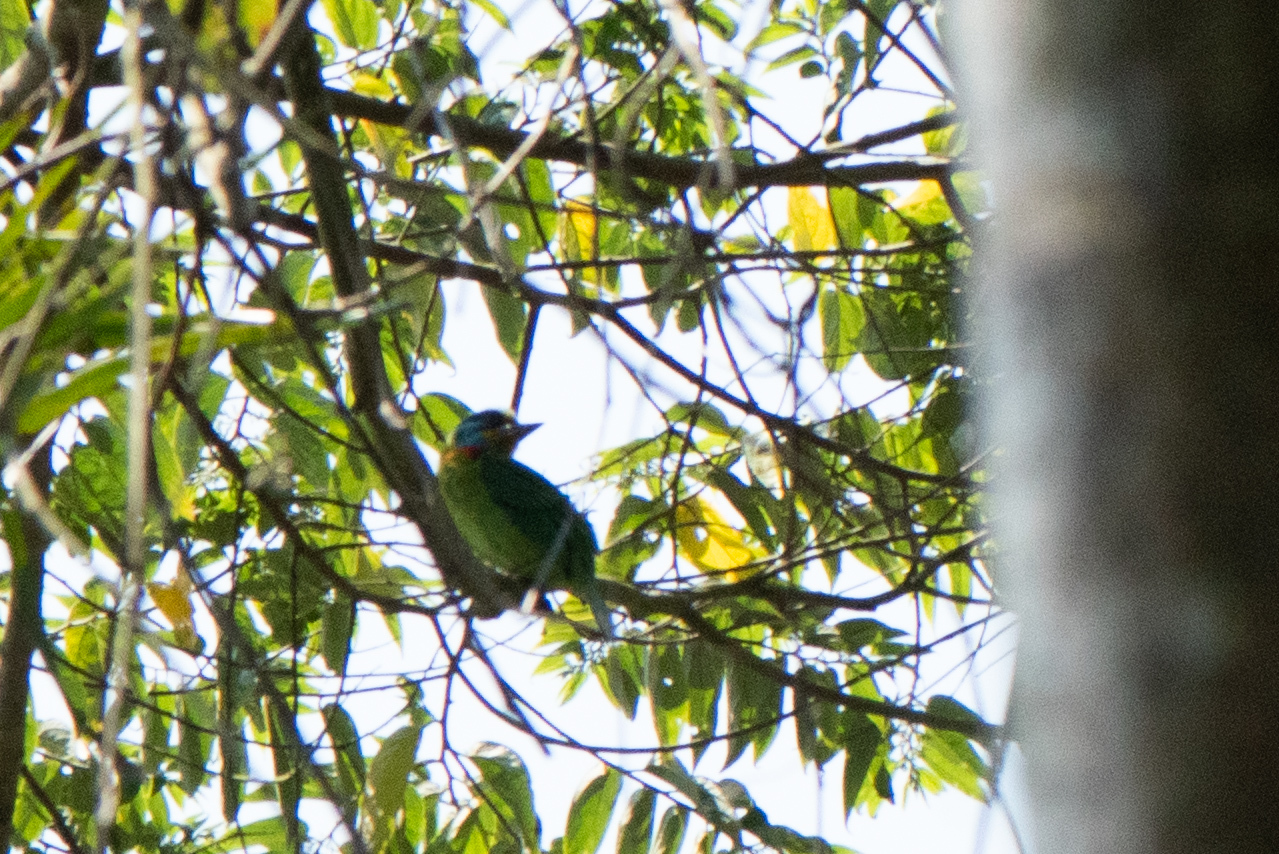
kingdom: Animalia
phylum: Chordata
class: Aves
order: Piciformes
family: Megalaimidae
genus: Psilopogon
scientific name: Psilopogon nuchalis
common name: Taiwan barbet
